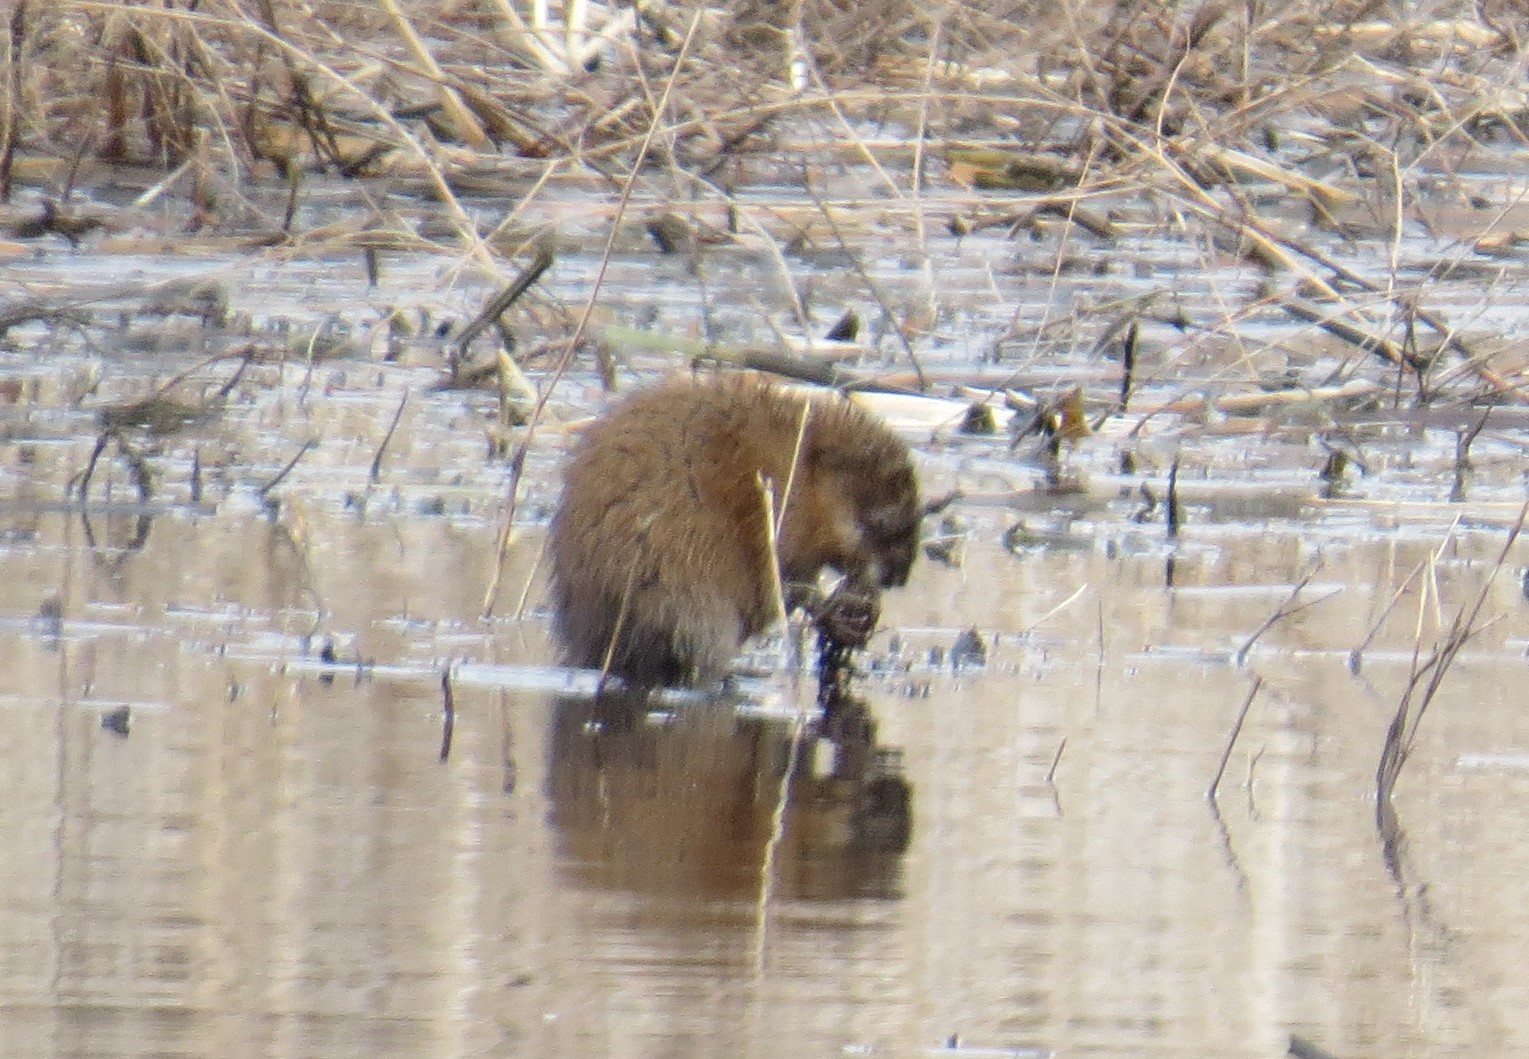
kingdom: Animalia
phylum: Chordata
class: Mammalia
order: Rodentia
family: Cricetidae
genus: Ondatra
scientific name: Ondatra zibethicus
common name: Muskrat
